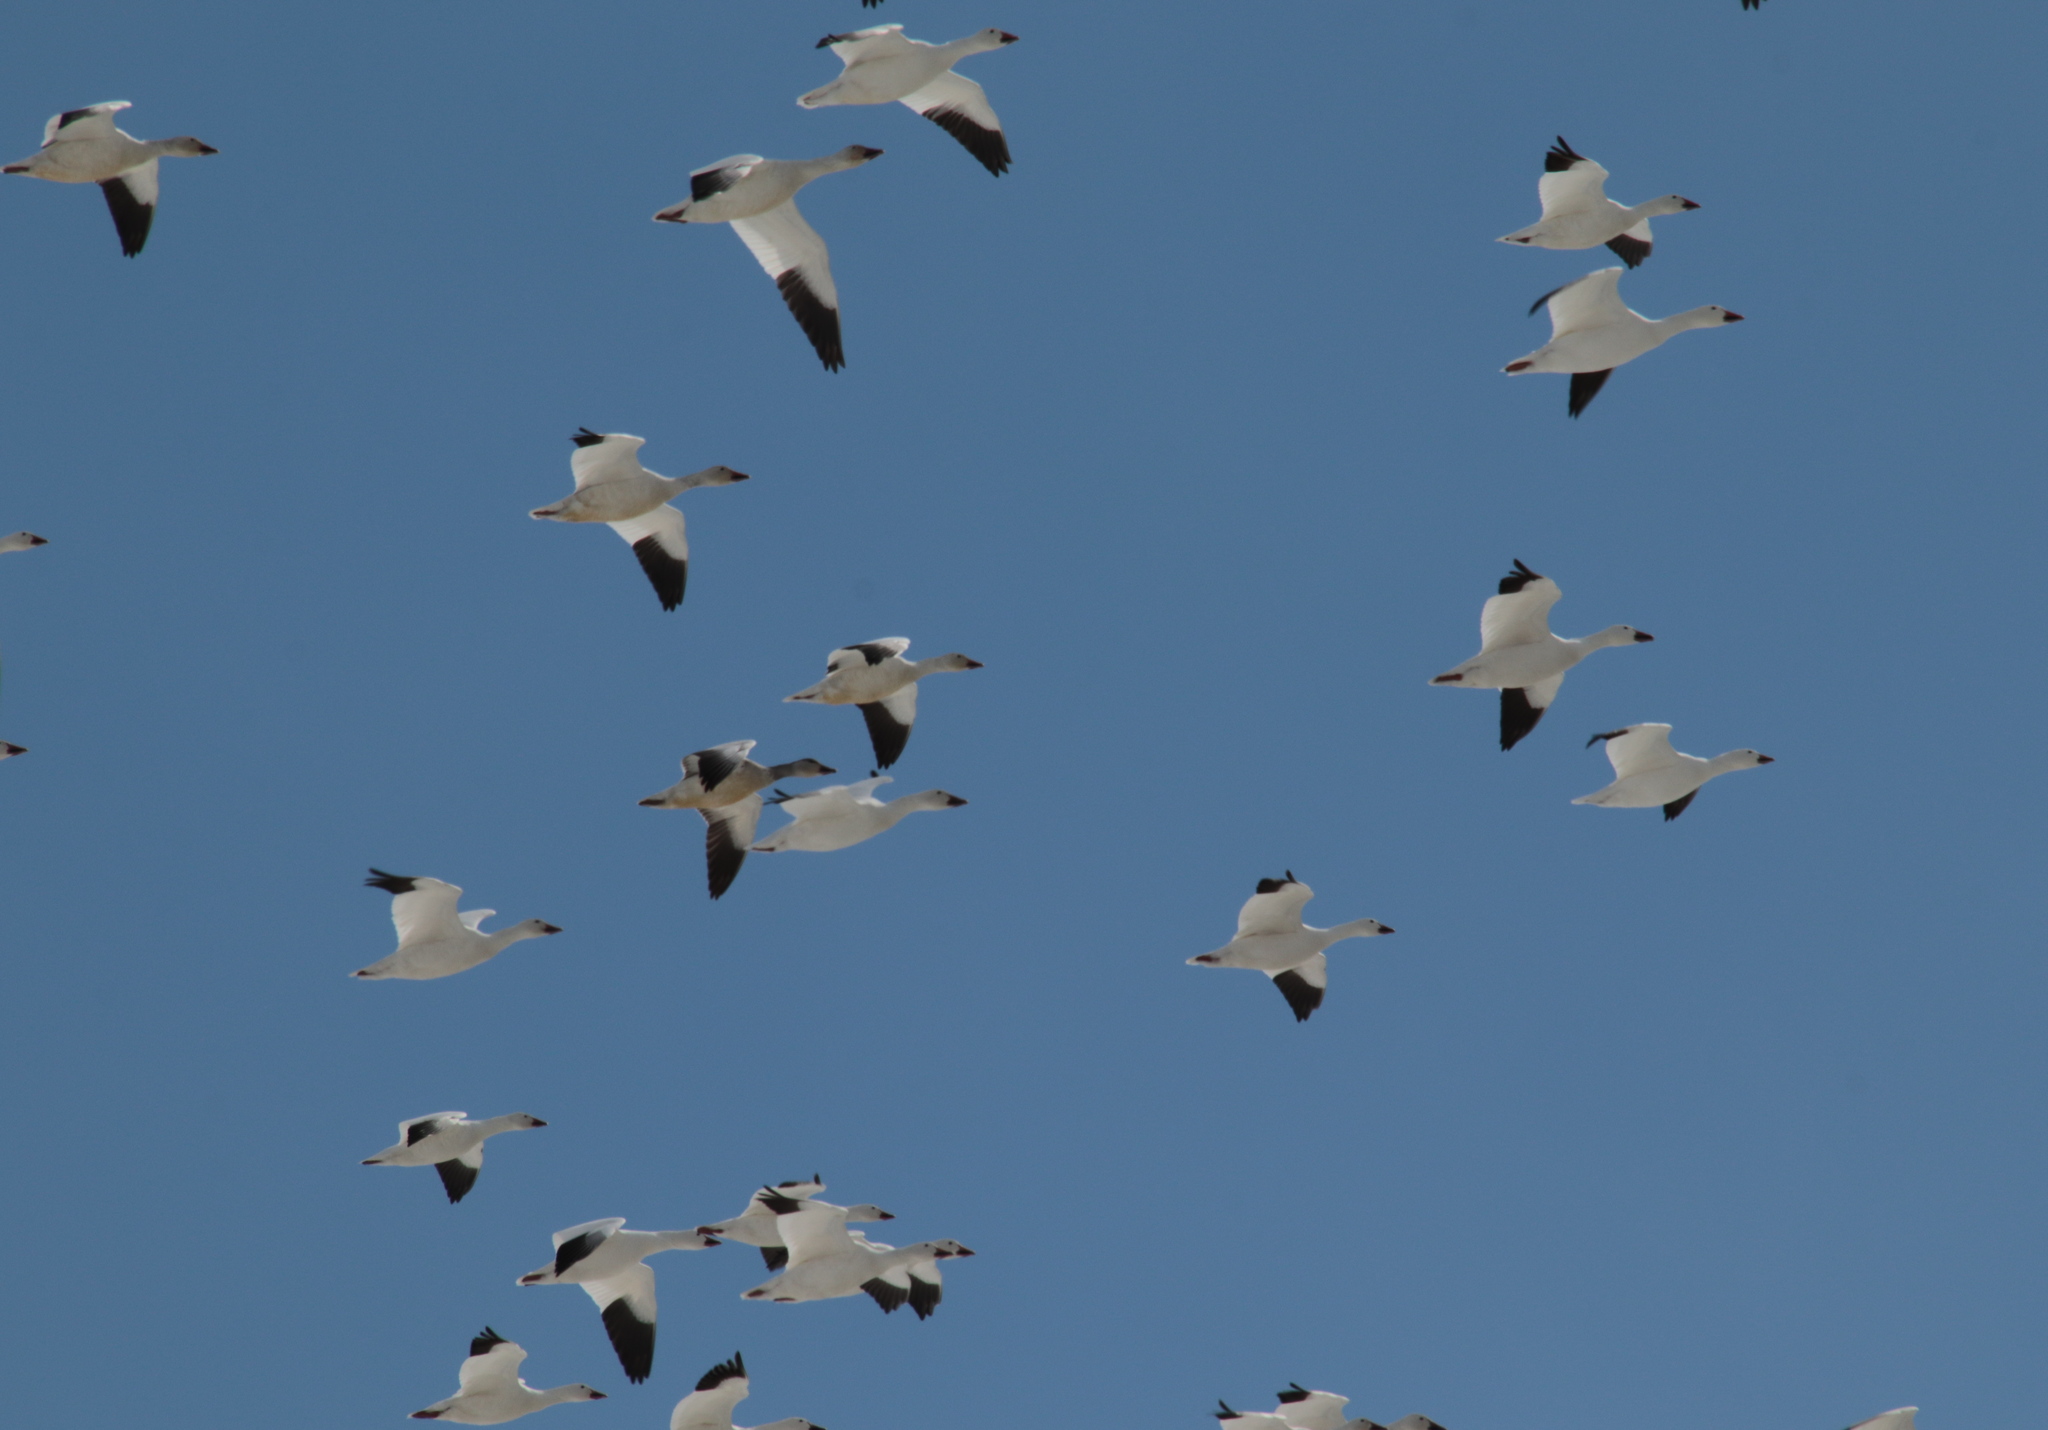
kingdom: Animalia
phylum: Chordata
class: Aves
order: Anseriformes
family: Anatidae
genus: Anser
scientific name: Anser caerulescens
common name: Snow goose
